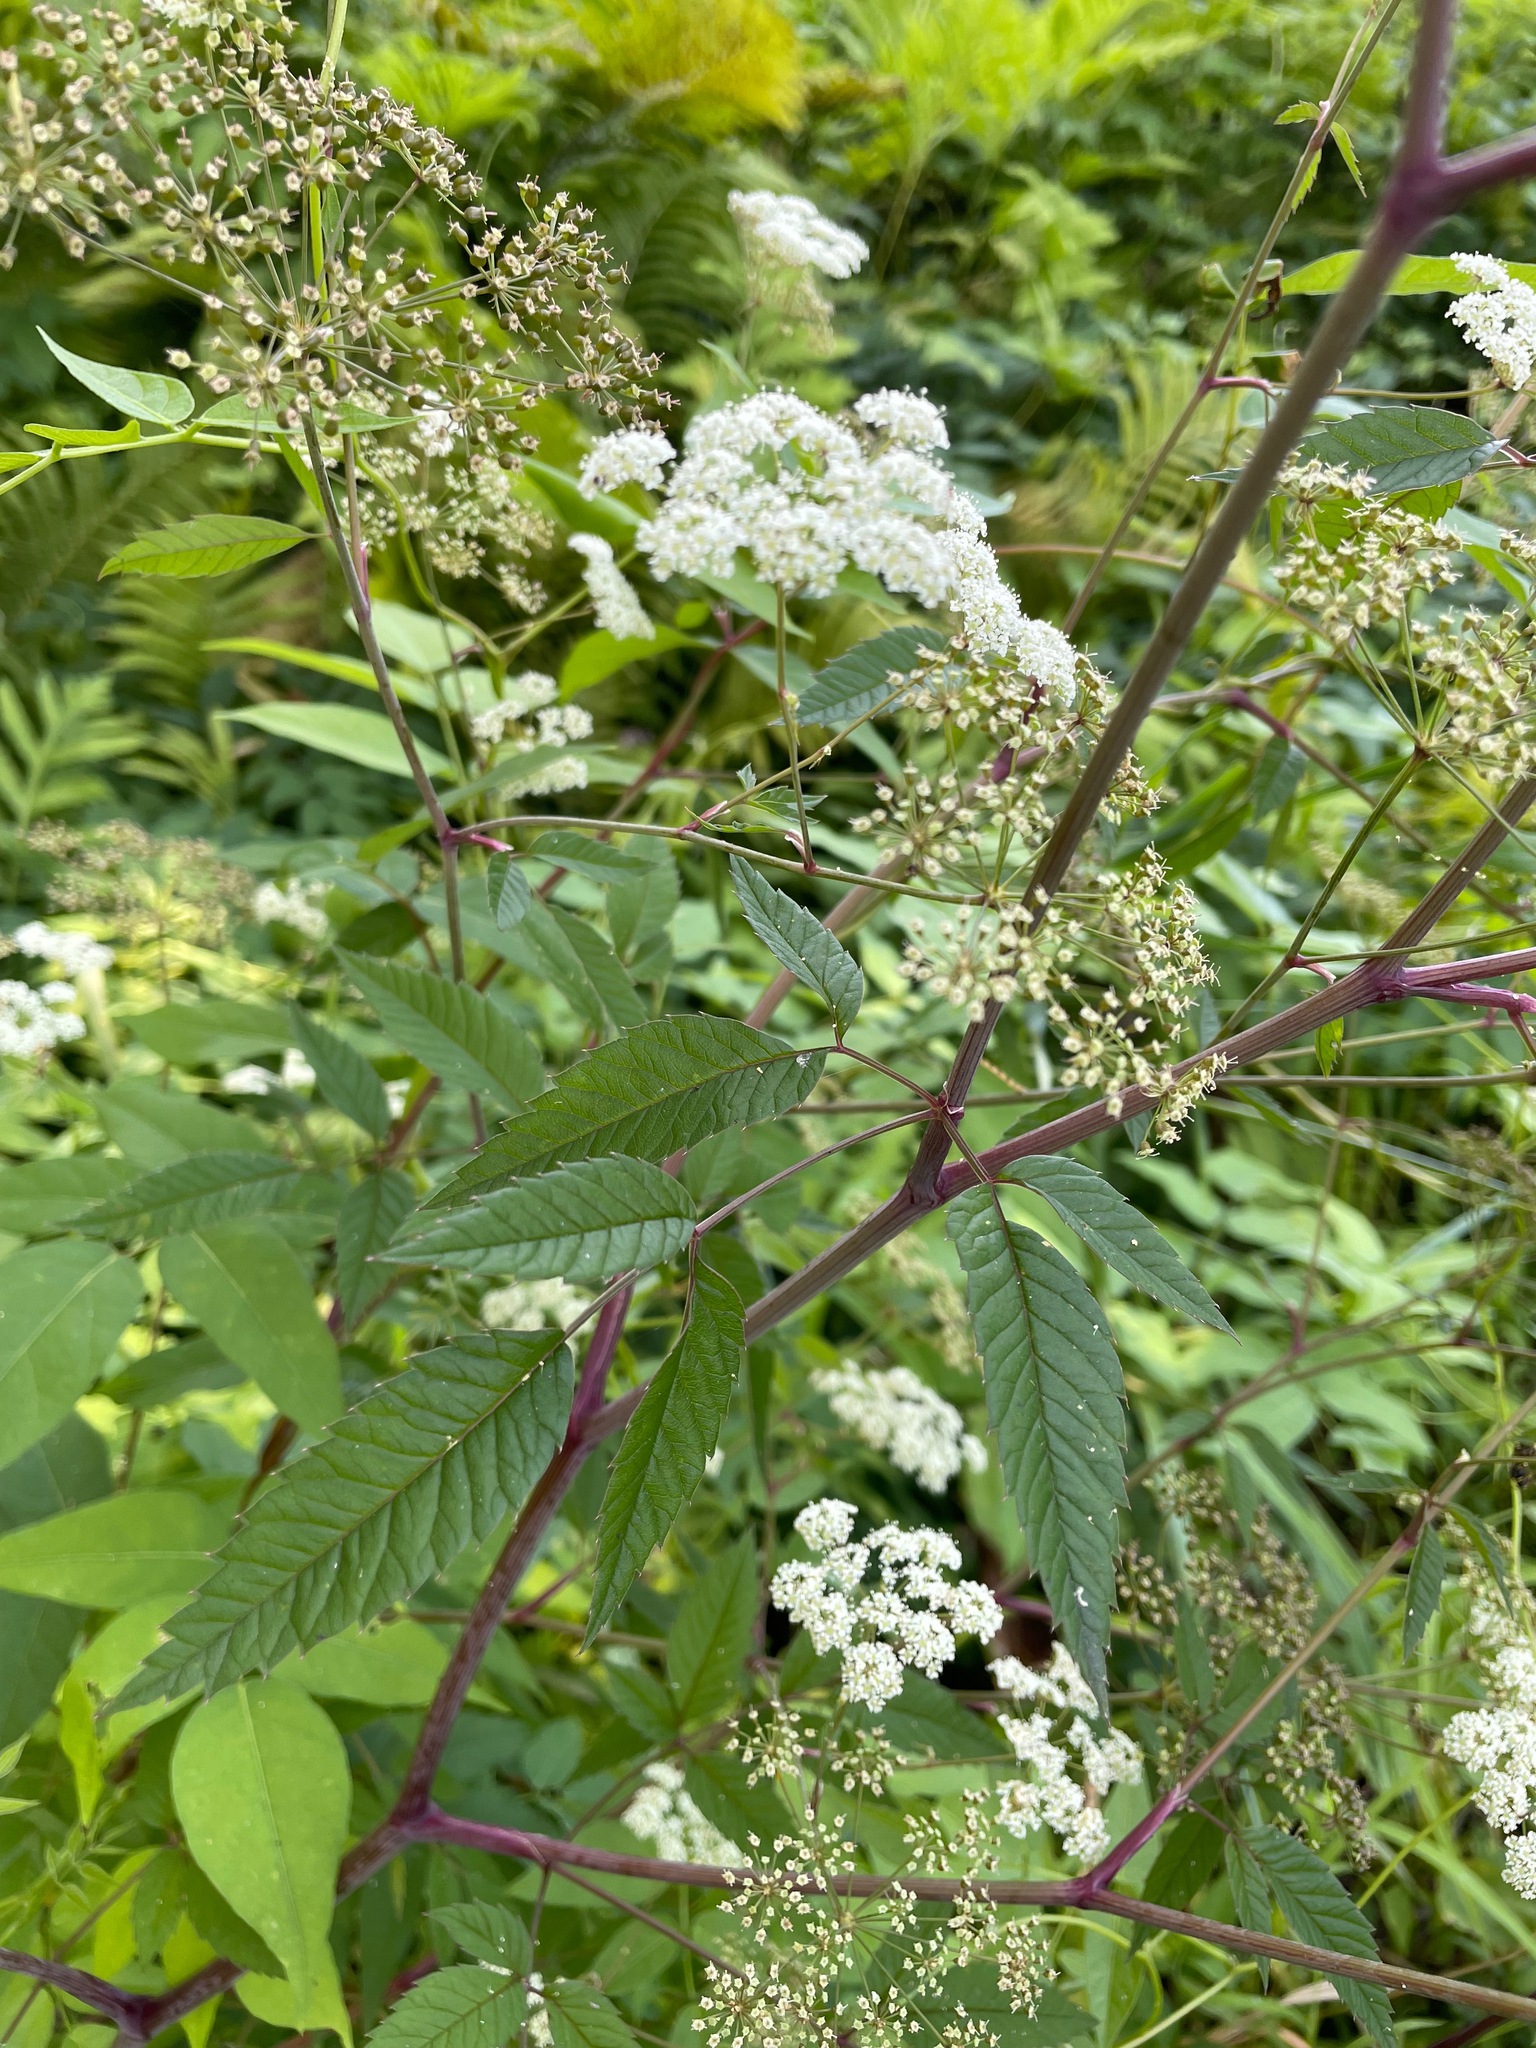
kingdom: Plantae
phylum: Tracheophyta
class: Magnoliopsida
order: Apiales
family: Apiaceae
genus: Cicuta
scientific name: Cicuta maculata
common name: Spotted cowbane
